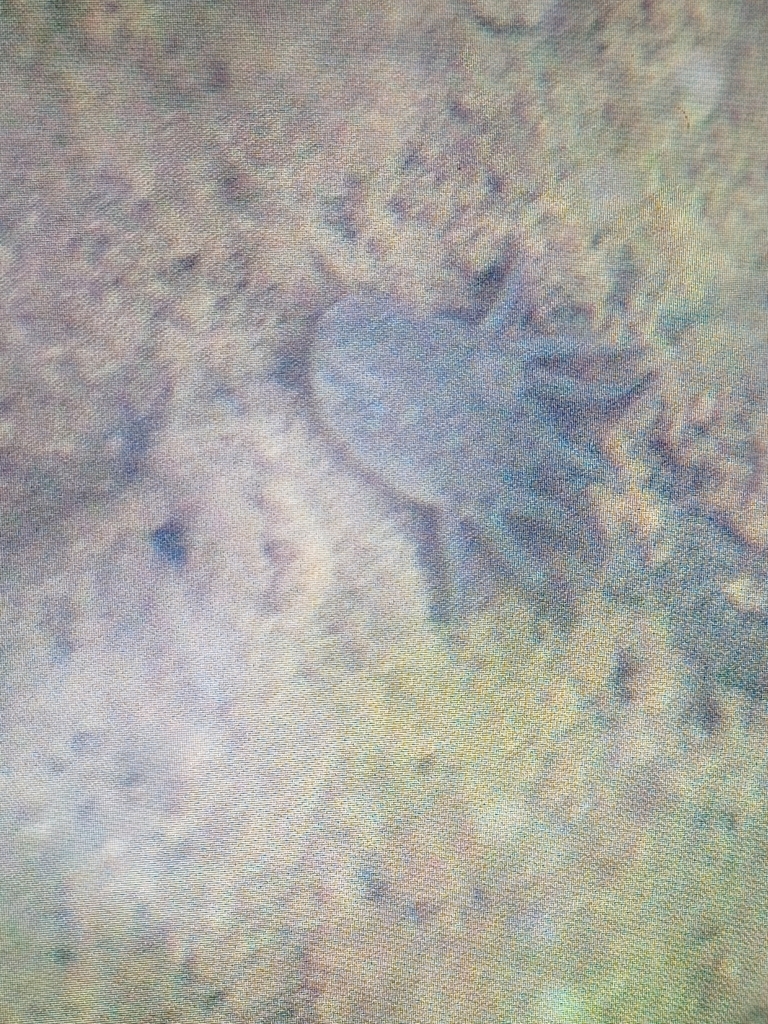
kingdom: Animalia
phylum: Chordata
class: Amphibia
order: Caudata
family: Ambystomatidae
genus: Ambystoma
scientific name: Ambystoma flavipiperatum
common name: Yellow-peppered salamander
